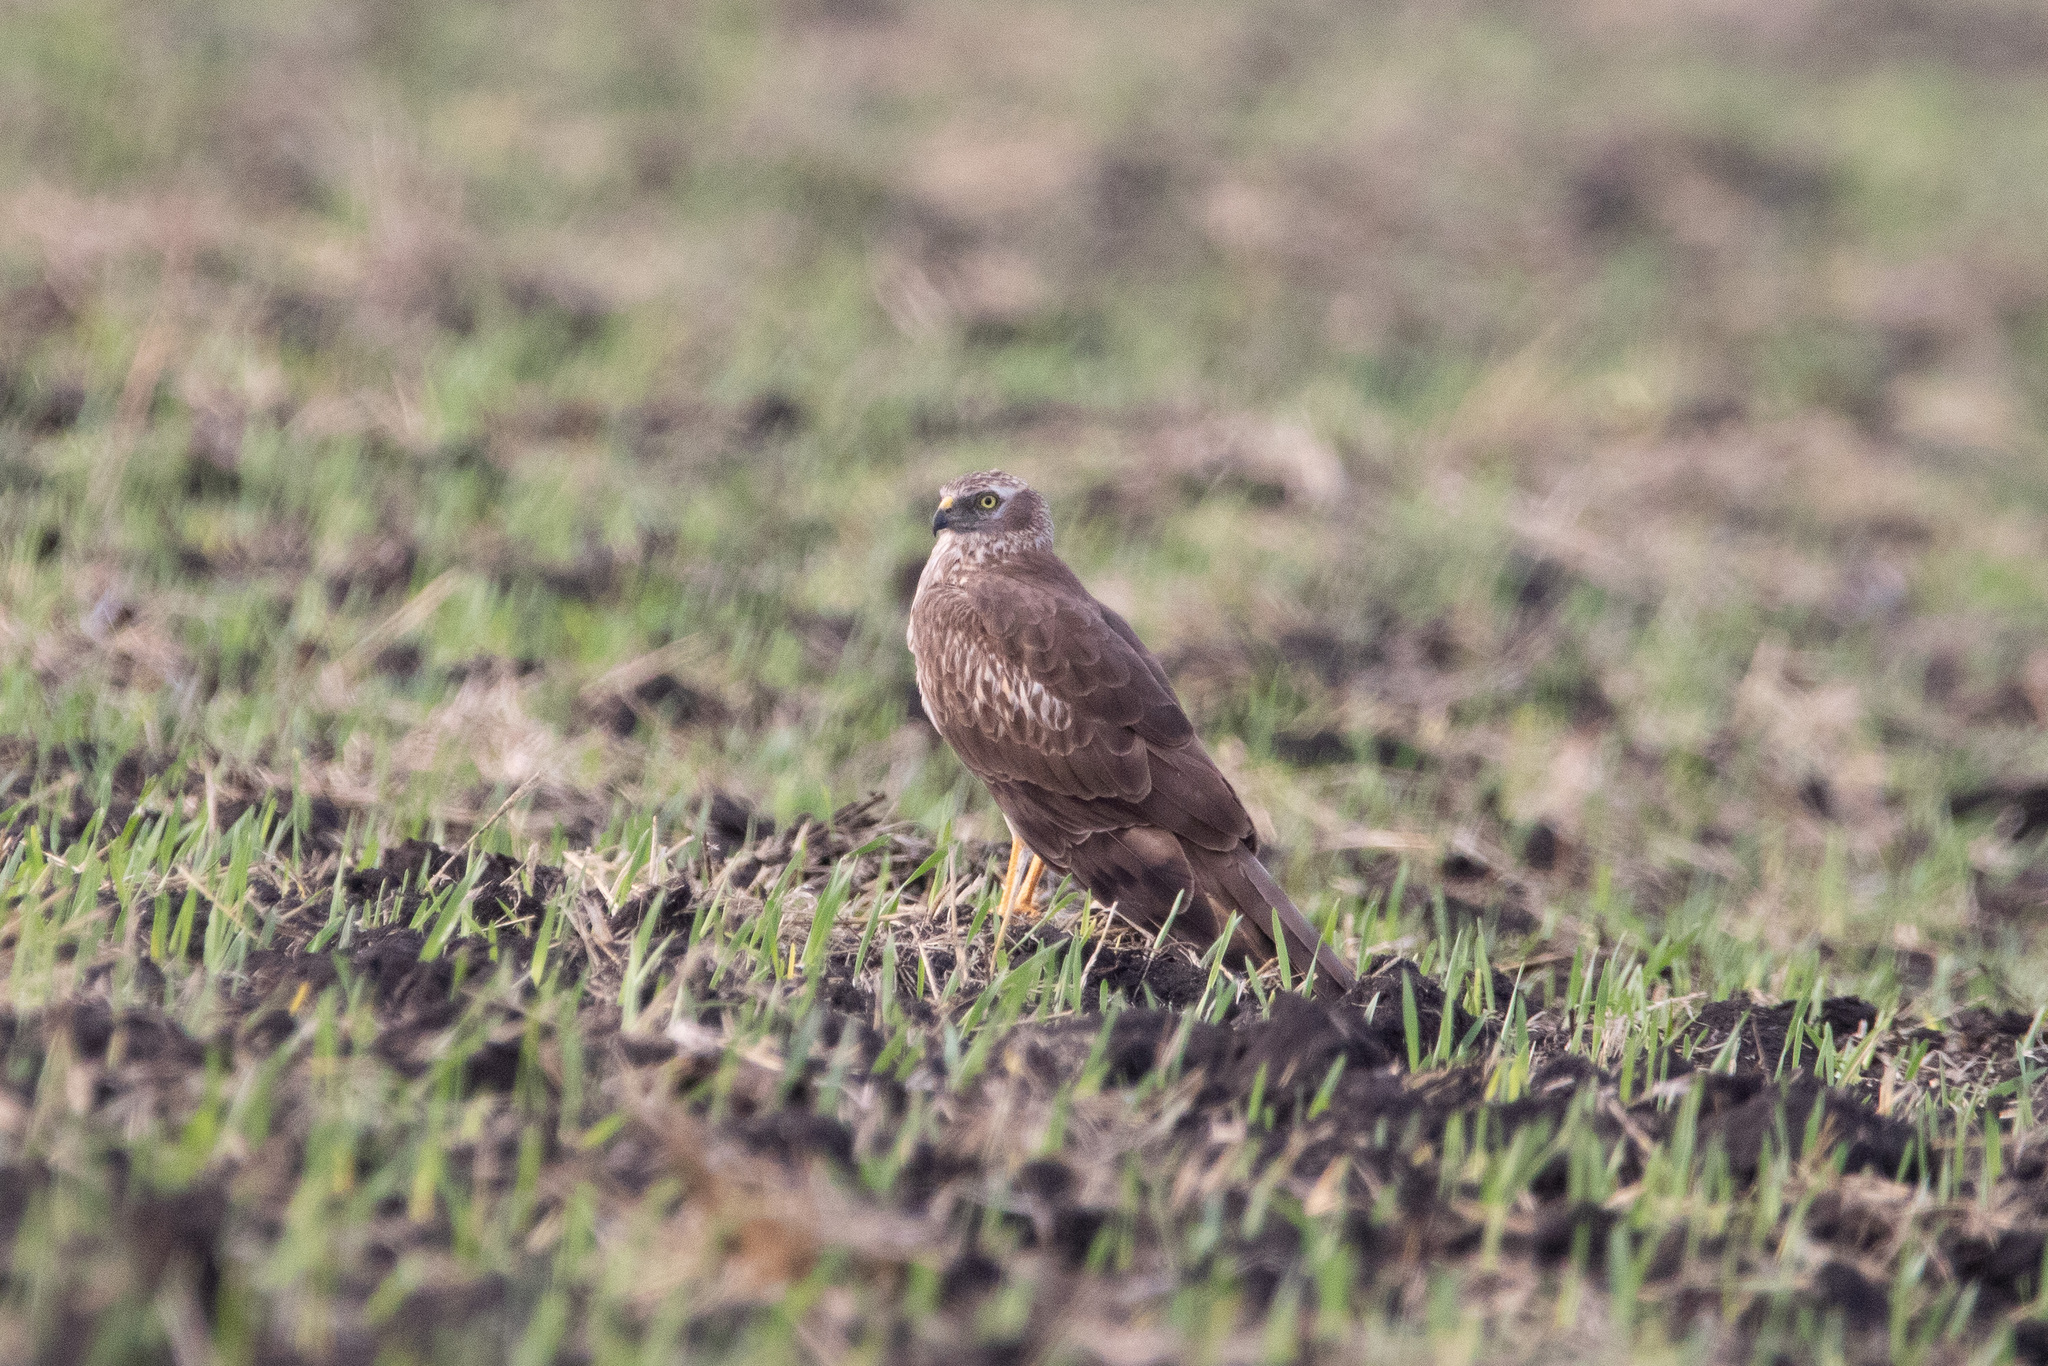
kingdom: Animalia
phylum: Chordata
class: Aves
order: Accipitriformes
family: Accipitridae
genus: Circus
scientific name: Circus pygargus
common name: Montagu's harrier
